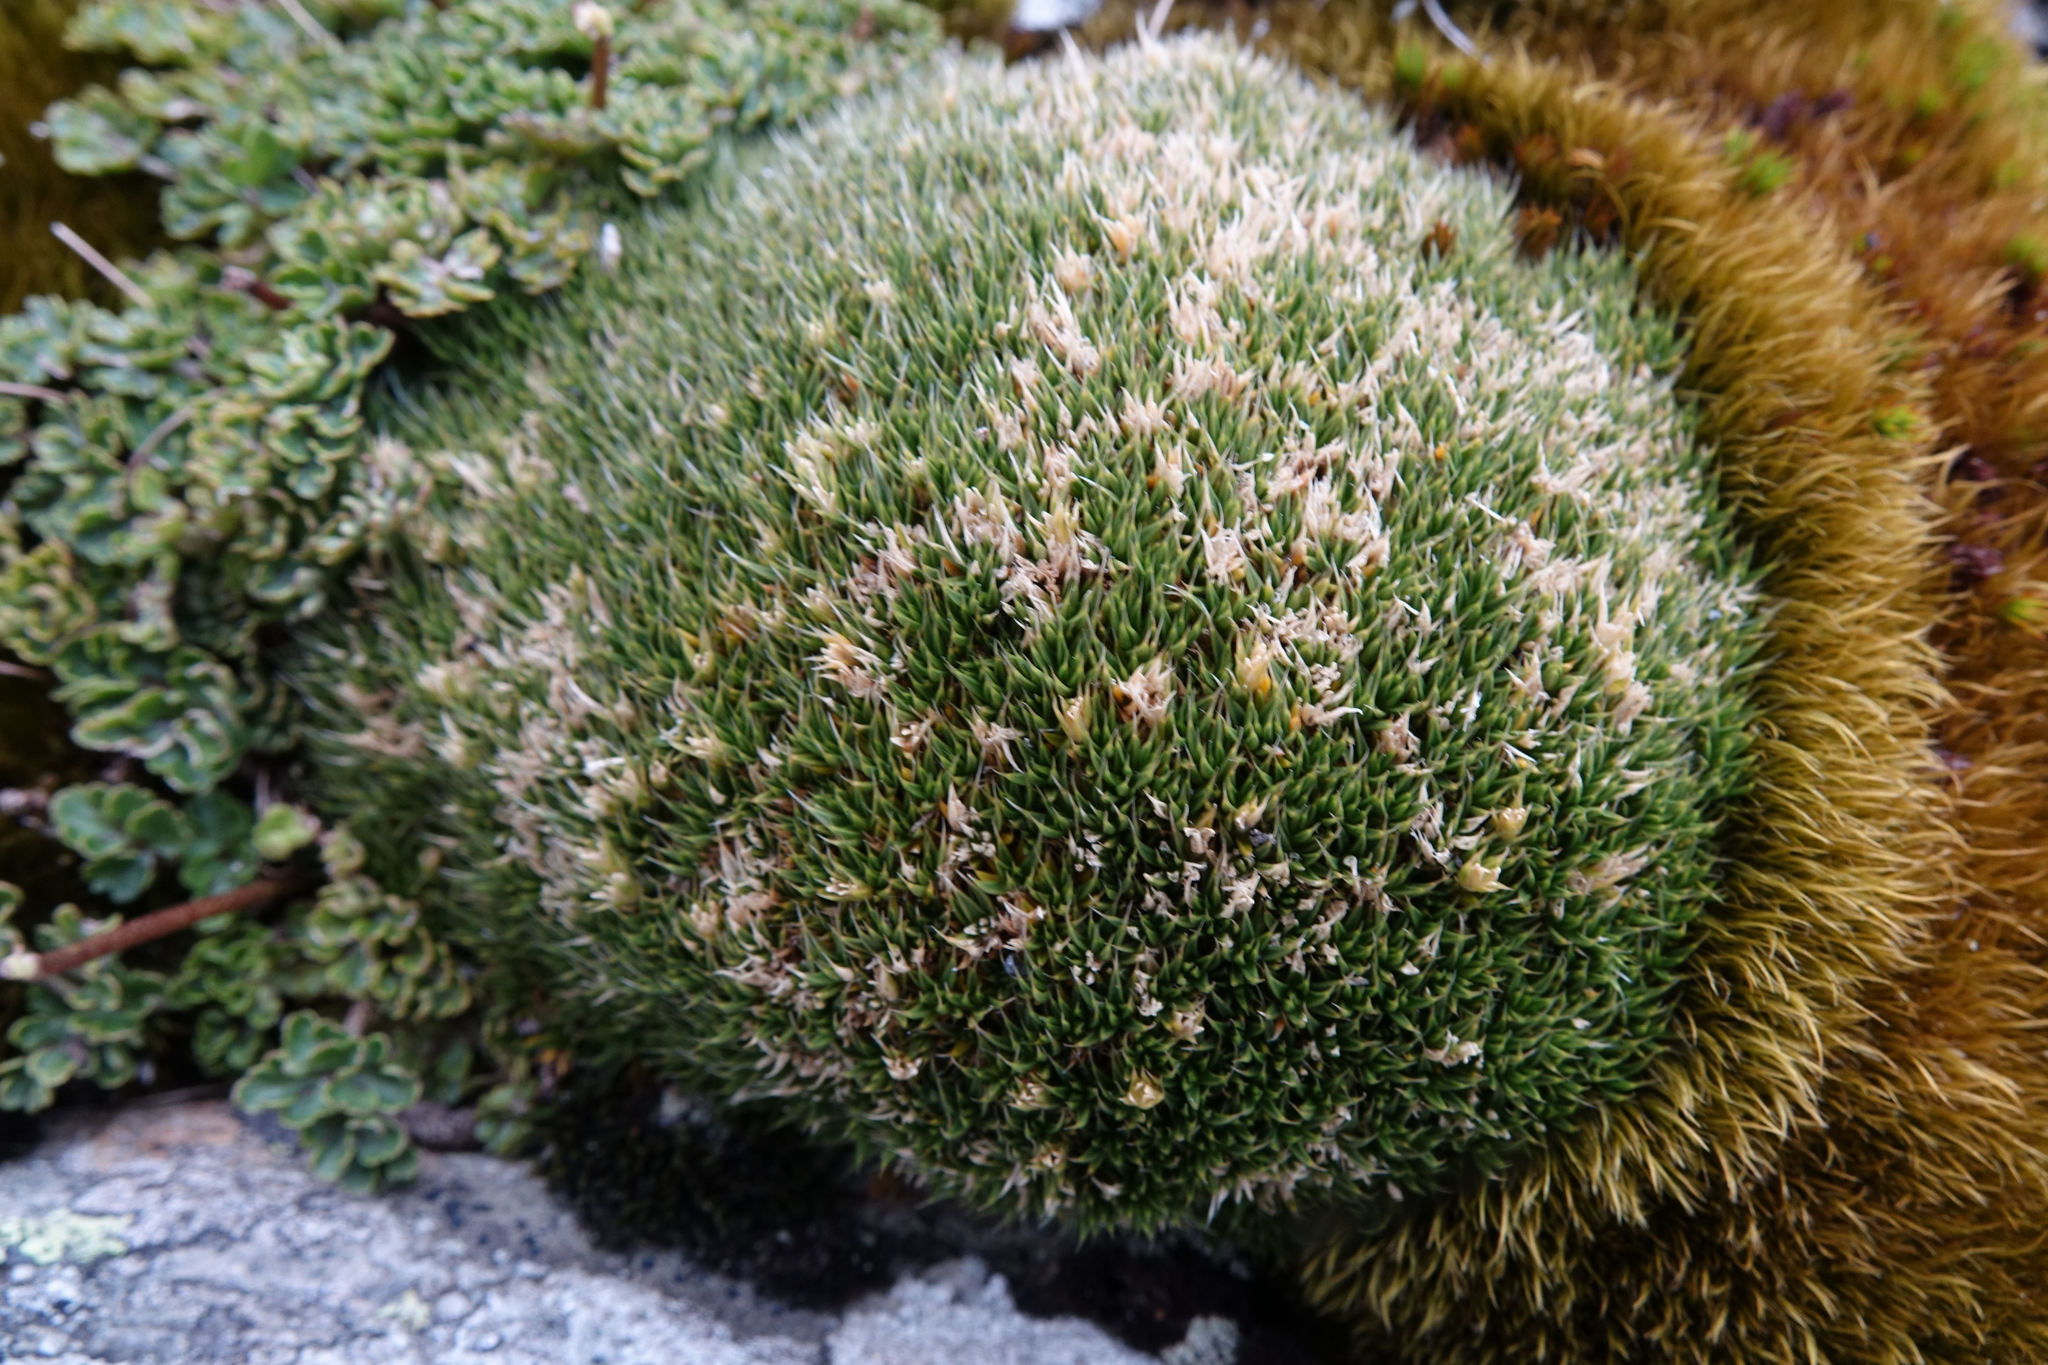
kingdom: Plantae
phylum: Tracheophyta
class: Magnoliopsida
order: Caryophyllales
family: Caryophyllaceae
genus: Colobanthus
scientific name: Colobanthus buchananii
